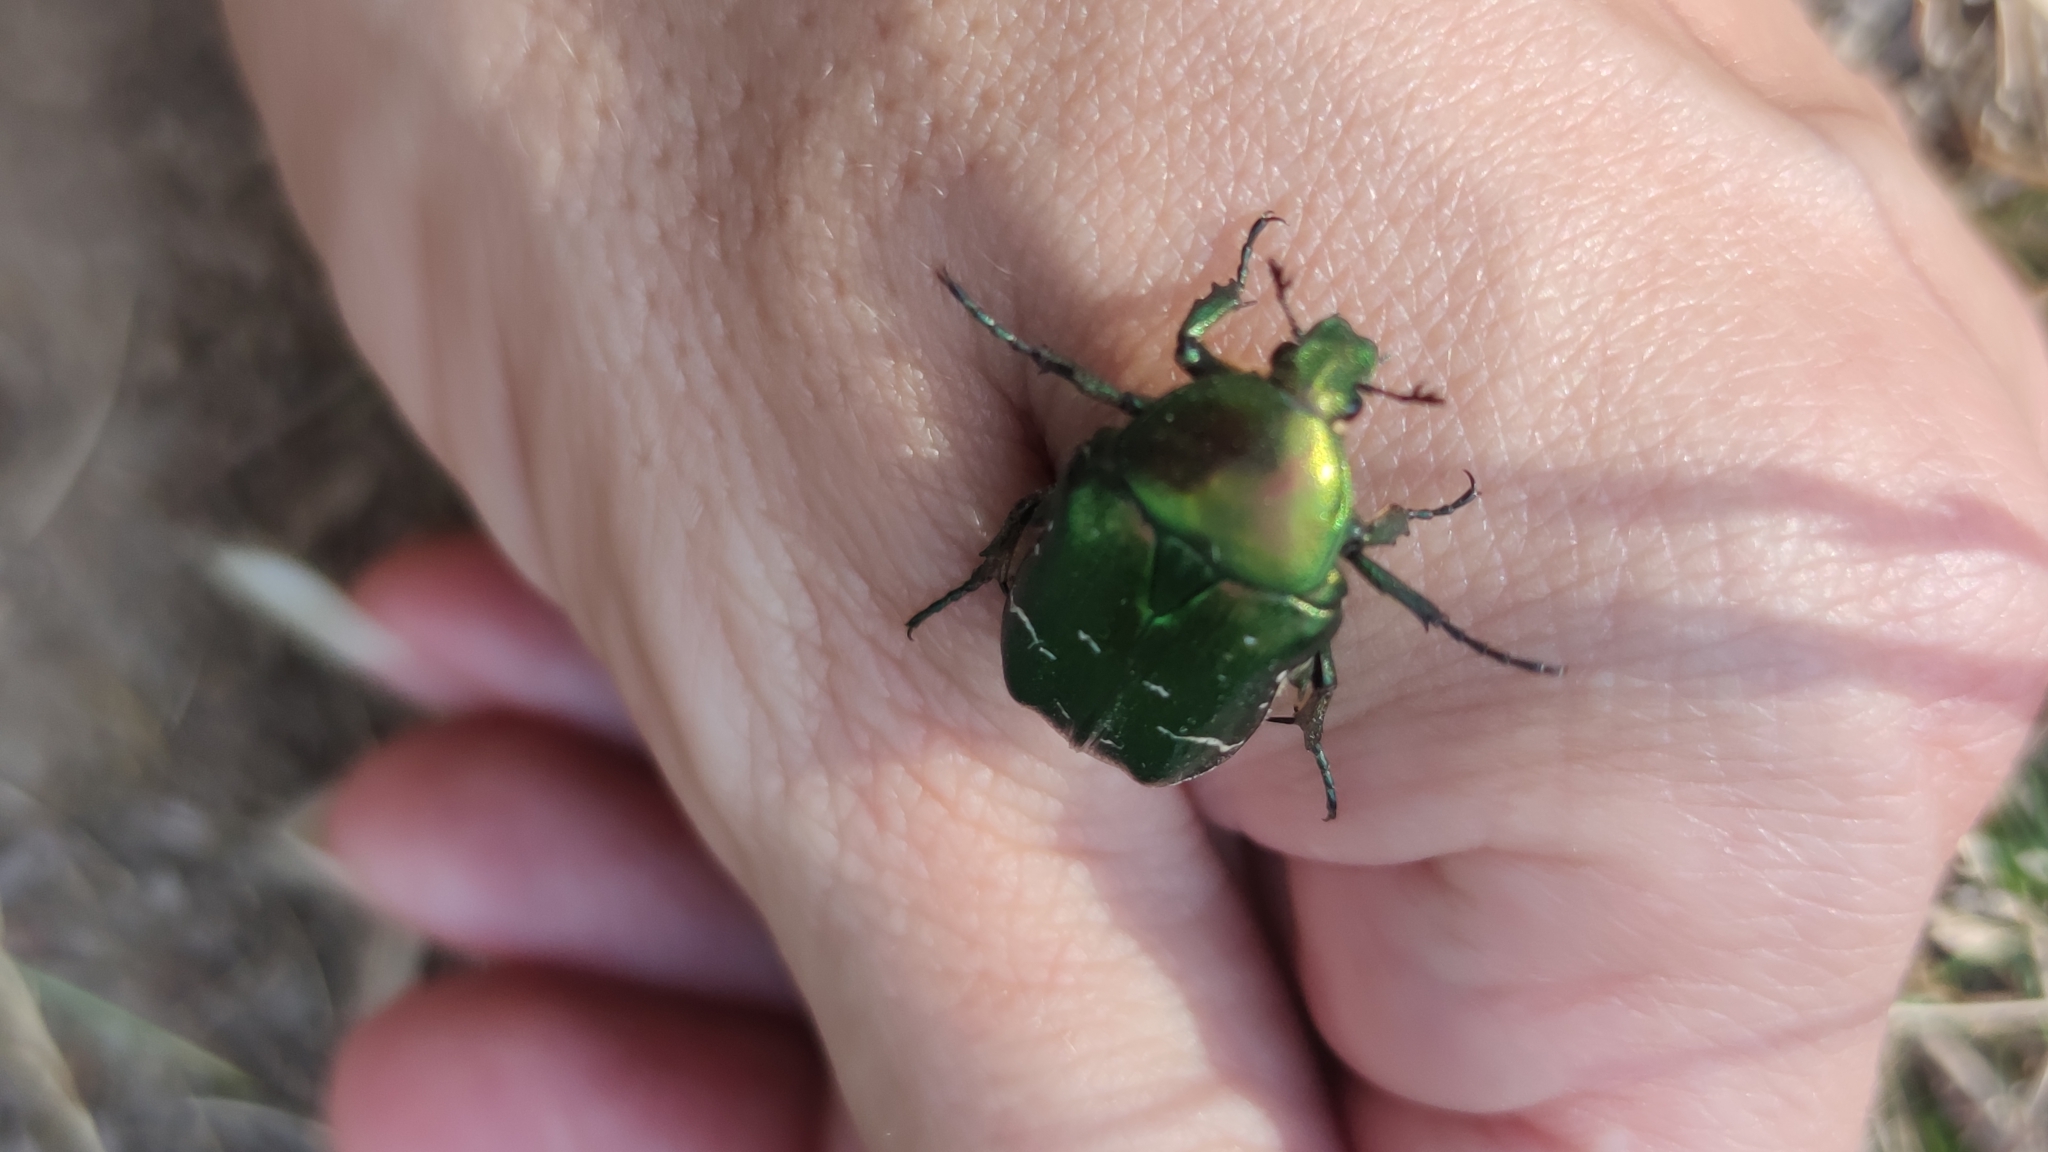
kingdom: Animalia
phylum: Arthropoda
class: Insecta
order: Coleoptera
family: Scarabaeidae
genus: Cetonia
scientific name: Cetonia aurata
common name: Rose chafer
